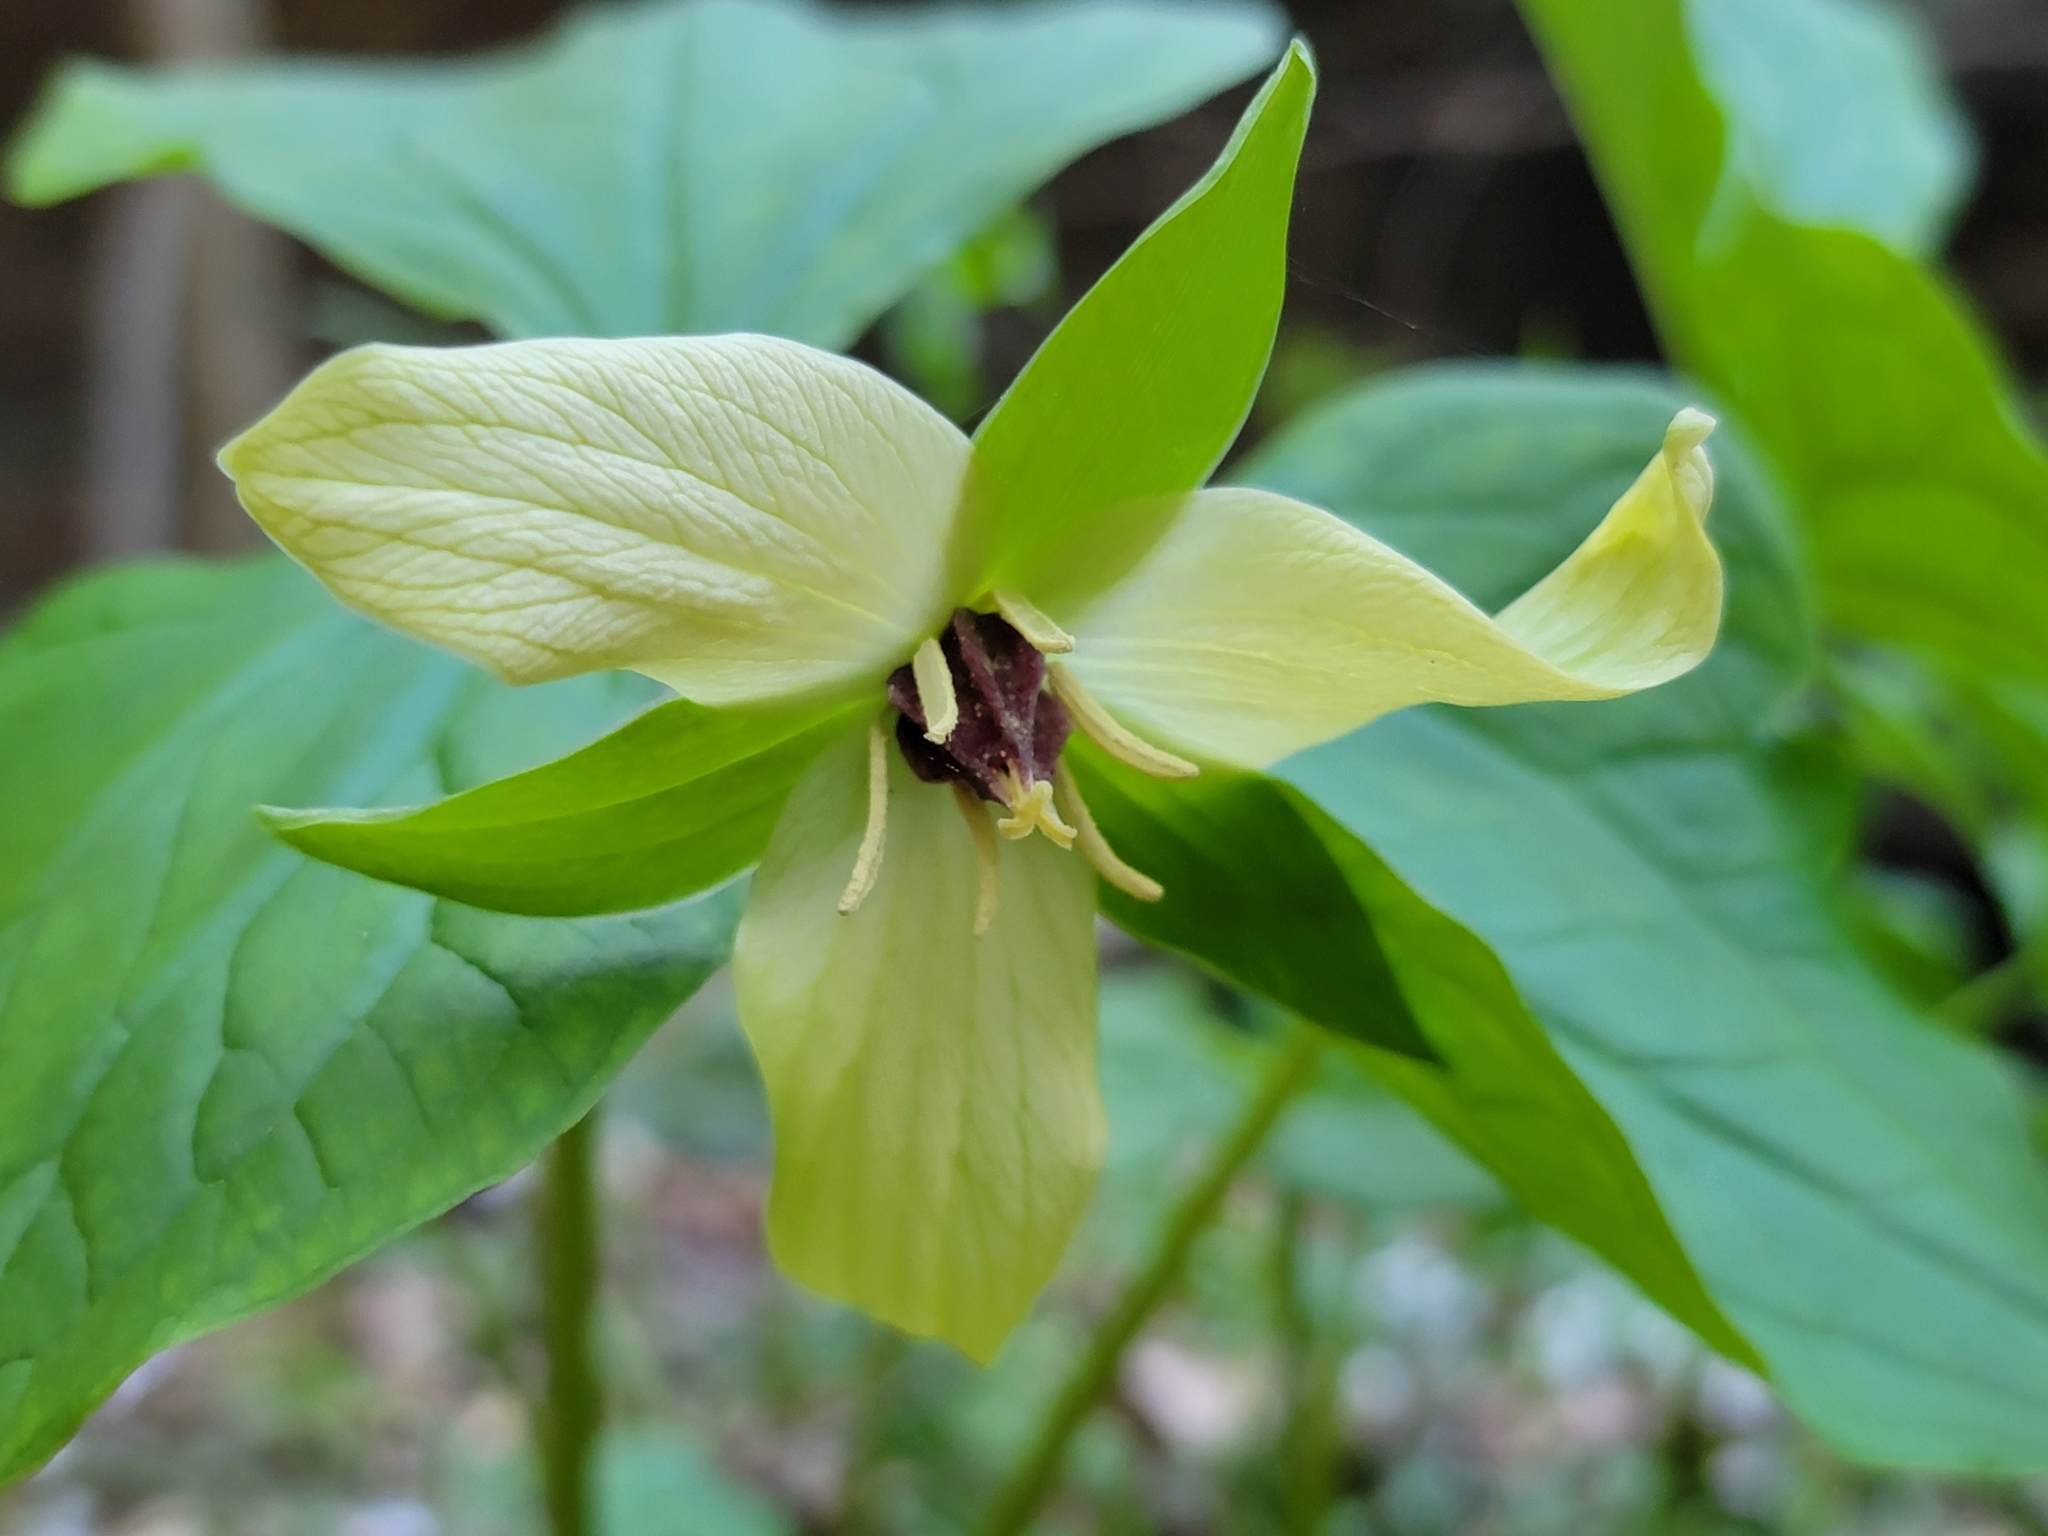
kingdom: Plantae
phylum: Tracheophyta
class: Liliopsida
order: Liliales
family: Melanthiaceae
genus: Trillium
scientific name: Trillium erectum
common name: Purple trillium
